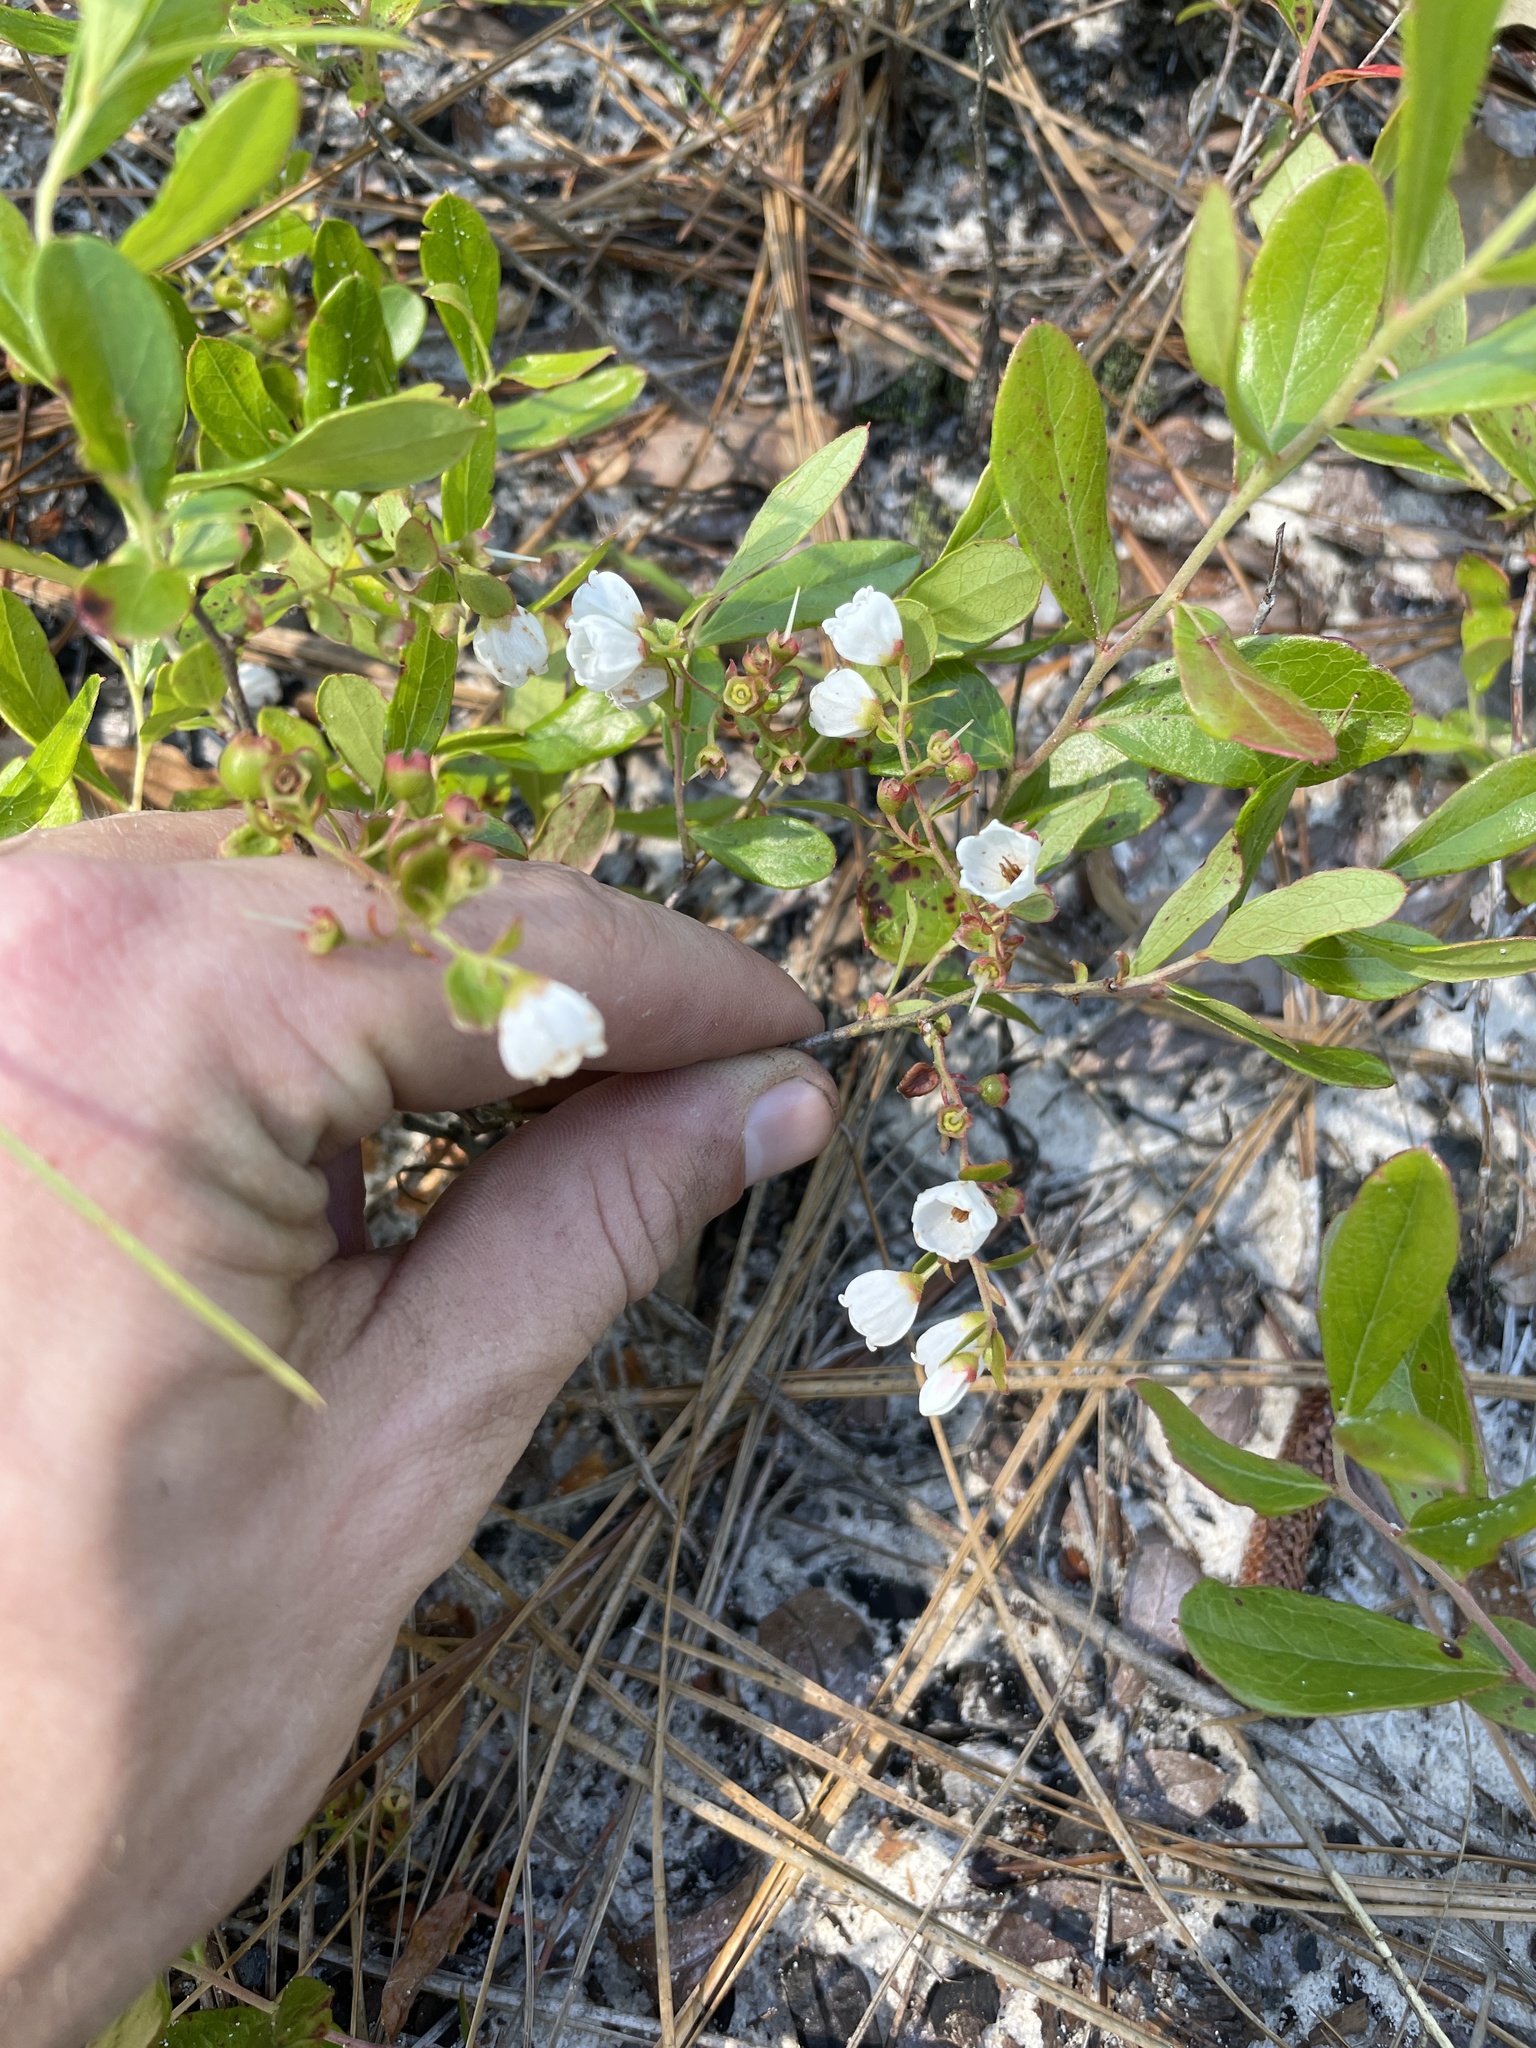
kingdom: Plantae
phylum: Tracheophyta
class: Magnoliopsida
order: Ericales
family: Ericaceae
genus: Gaylussacia
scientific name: Gaylussacia dumosa
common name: Dwarf huckleberry
